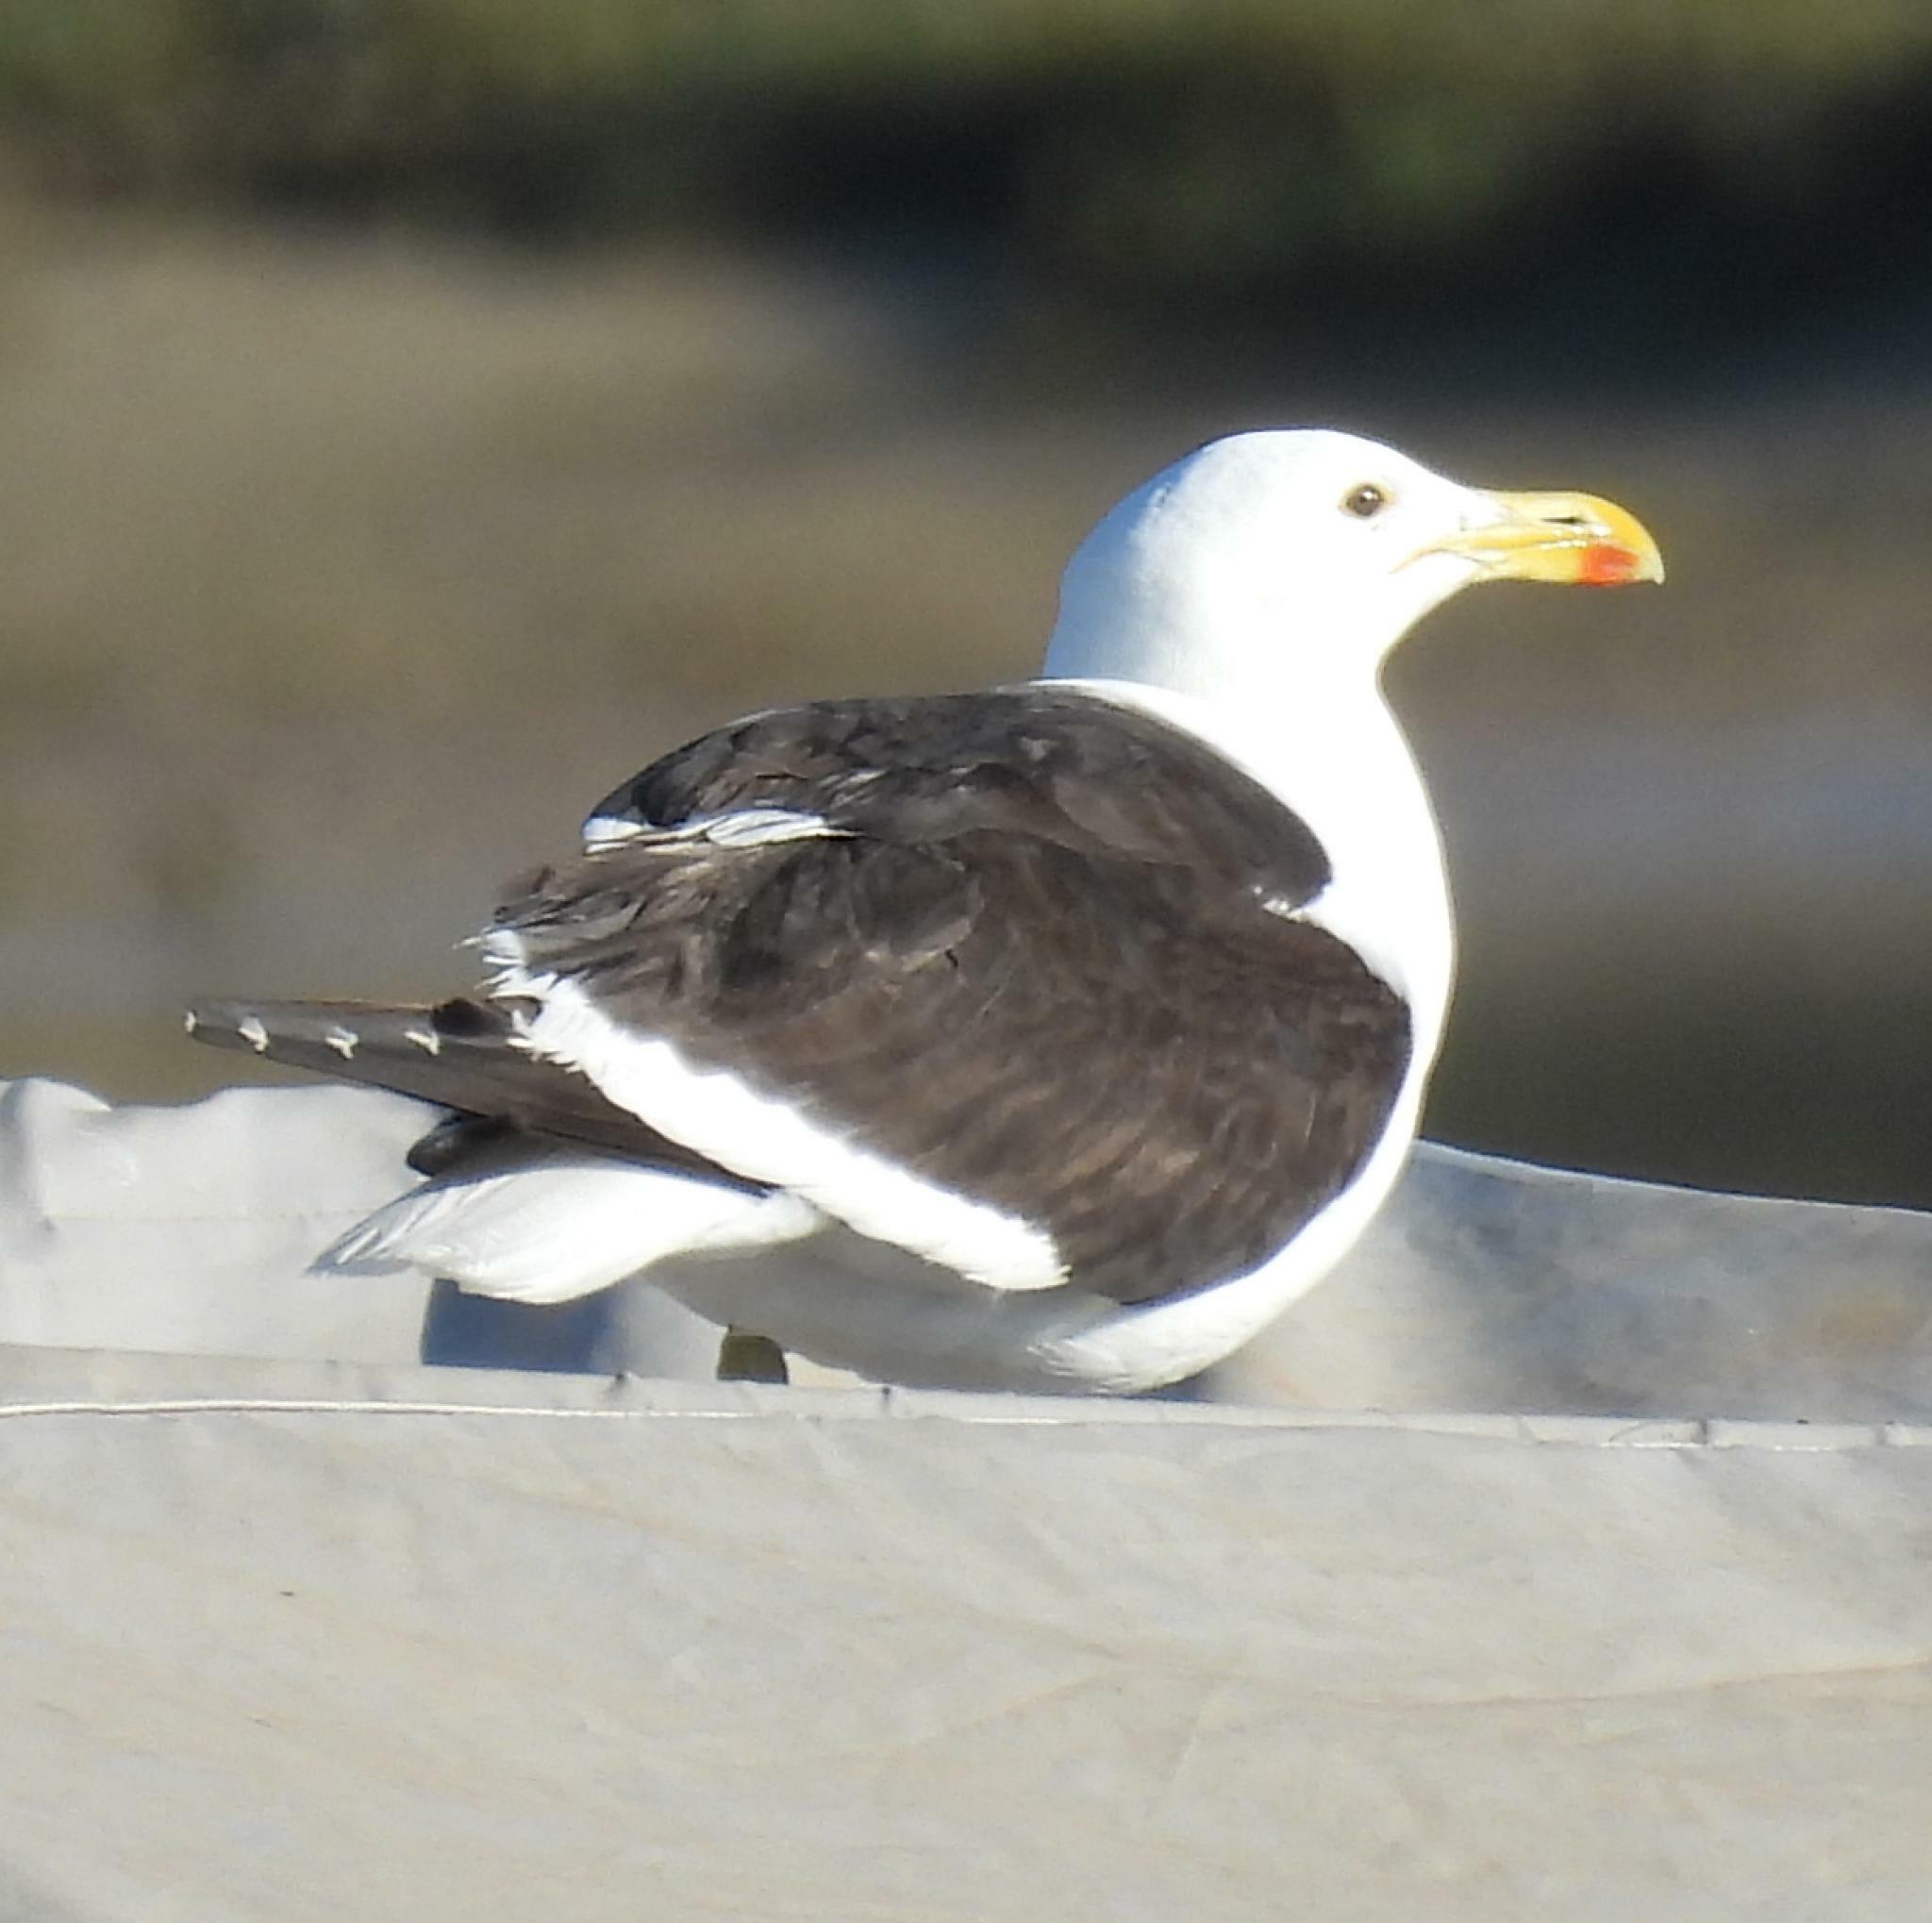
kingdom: Animalia
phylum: Chordata
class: Aves
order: Charadriiformes
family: Laridae
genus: Larus
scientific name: Larus dominicanus
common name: Kelp gull
